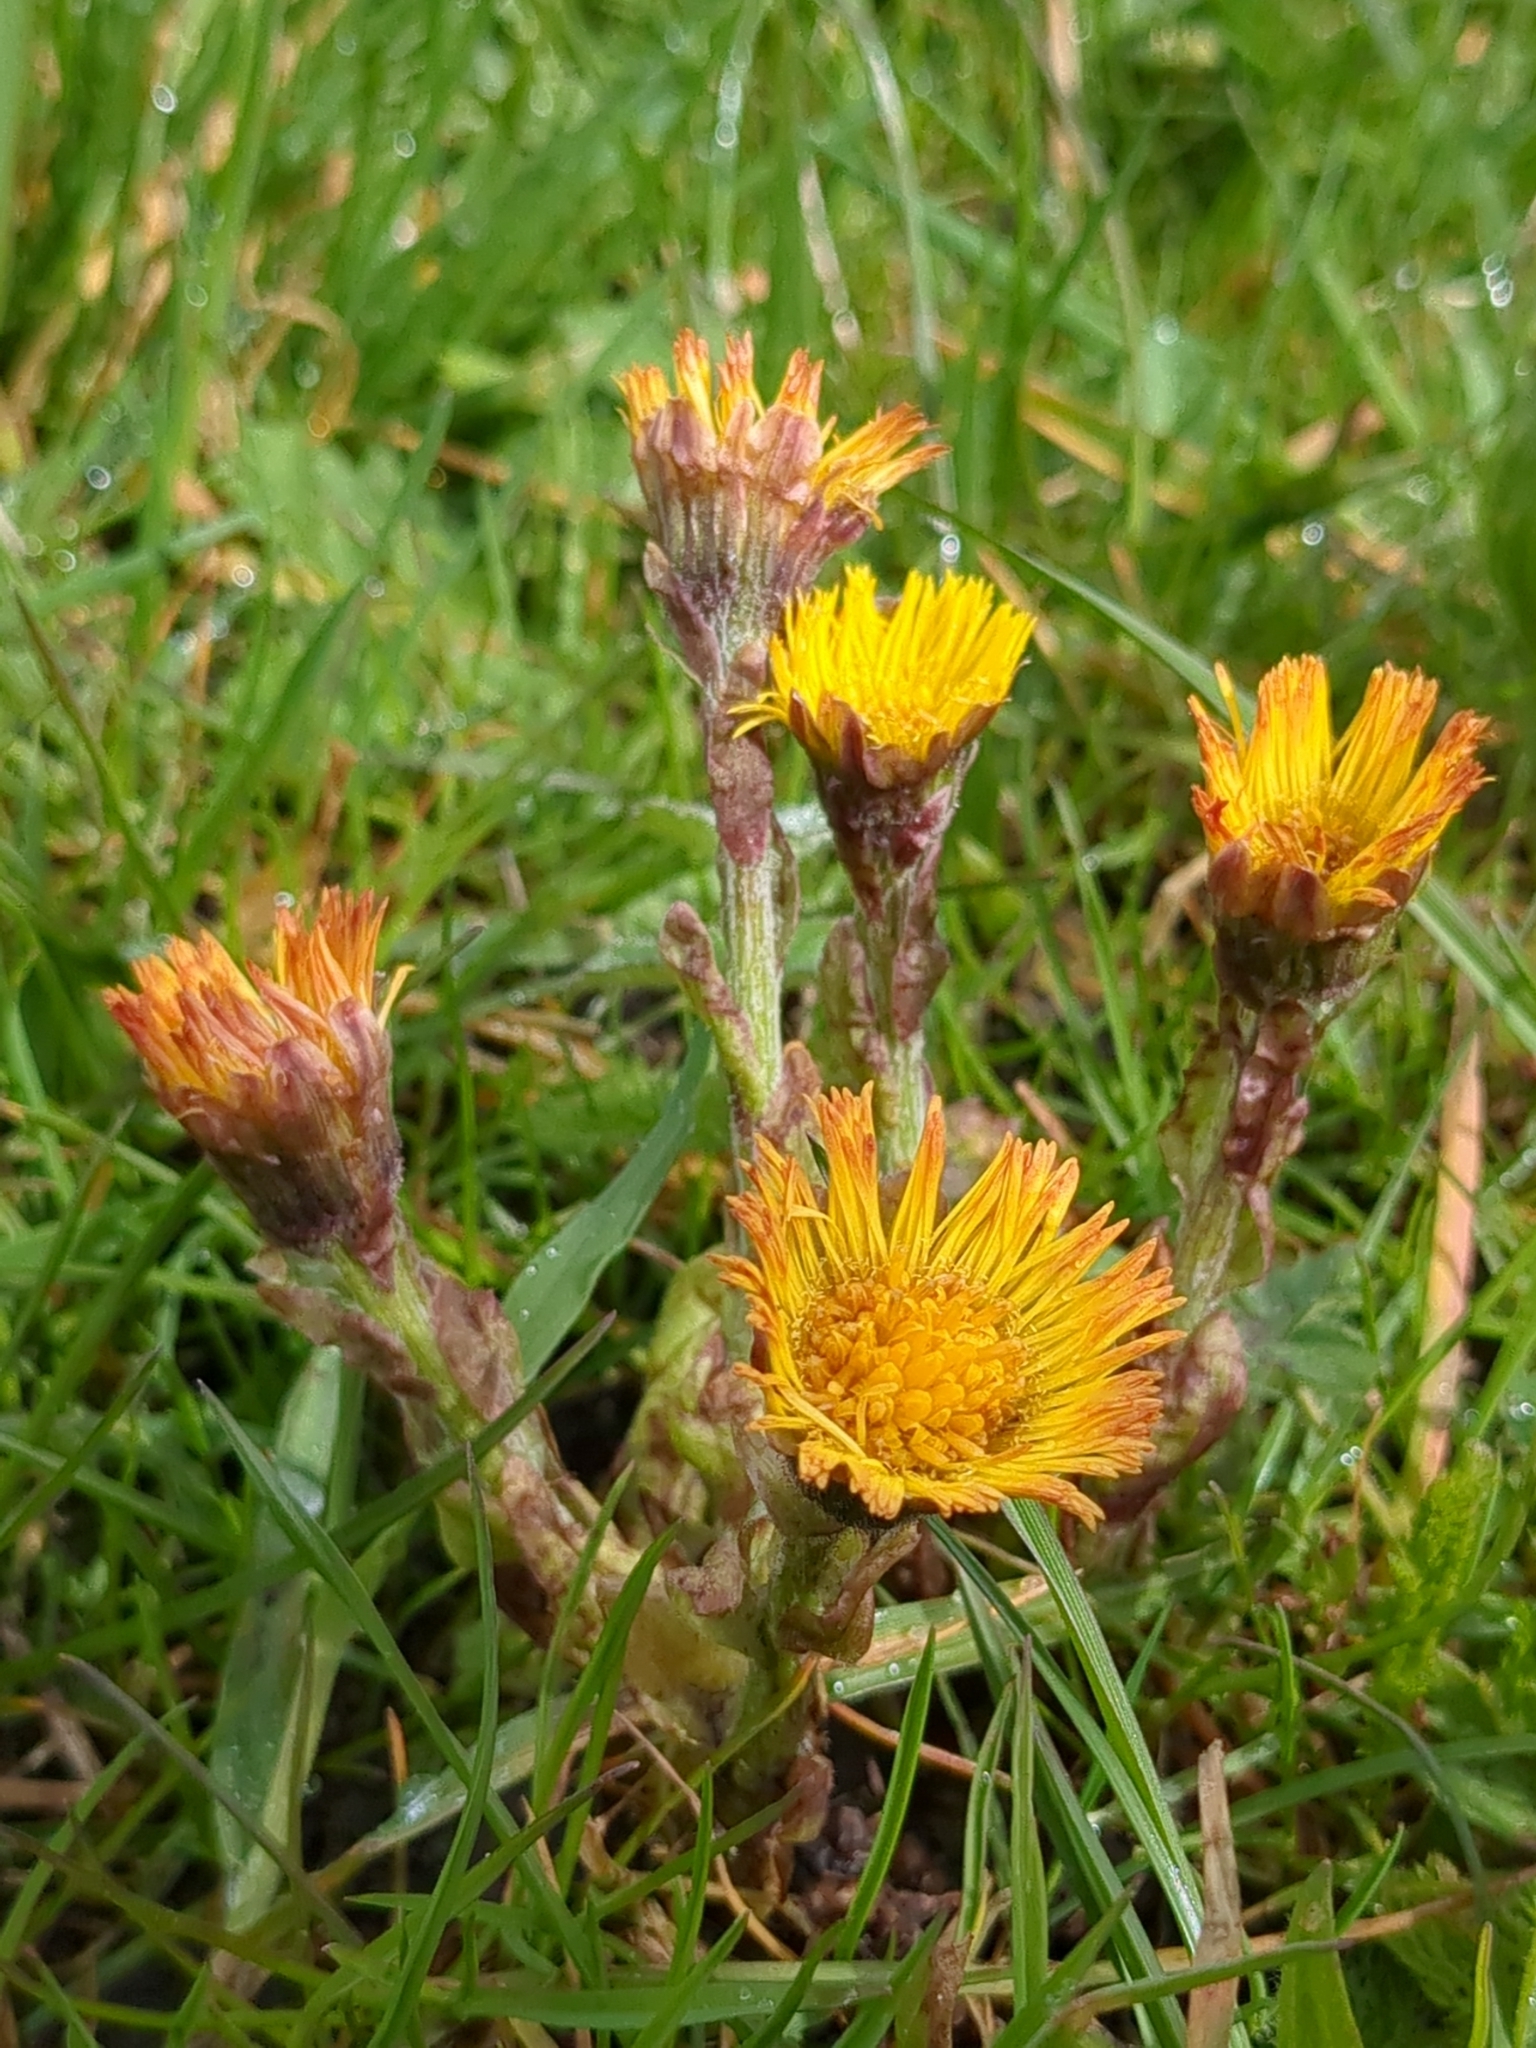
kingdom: Plantae
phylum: Tracheophyta
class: Magnoliopsida
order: Asterales
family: Asteraceae
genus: Tussilago
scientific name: Tussilago farfara
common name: Coltsfoot
